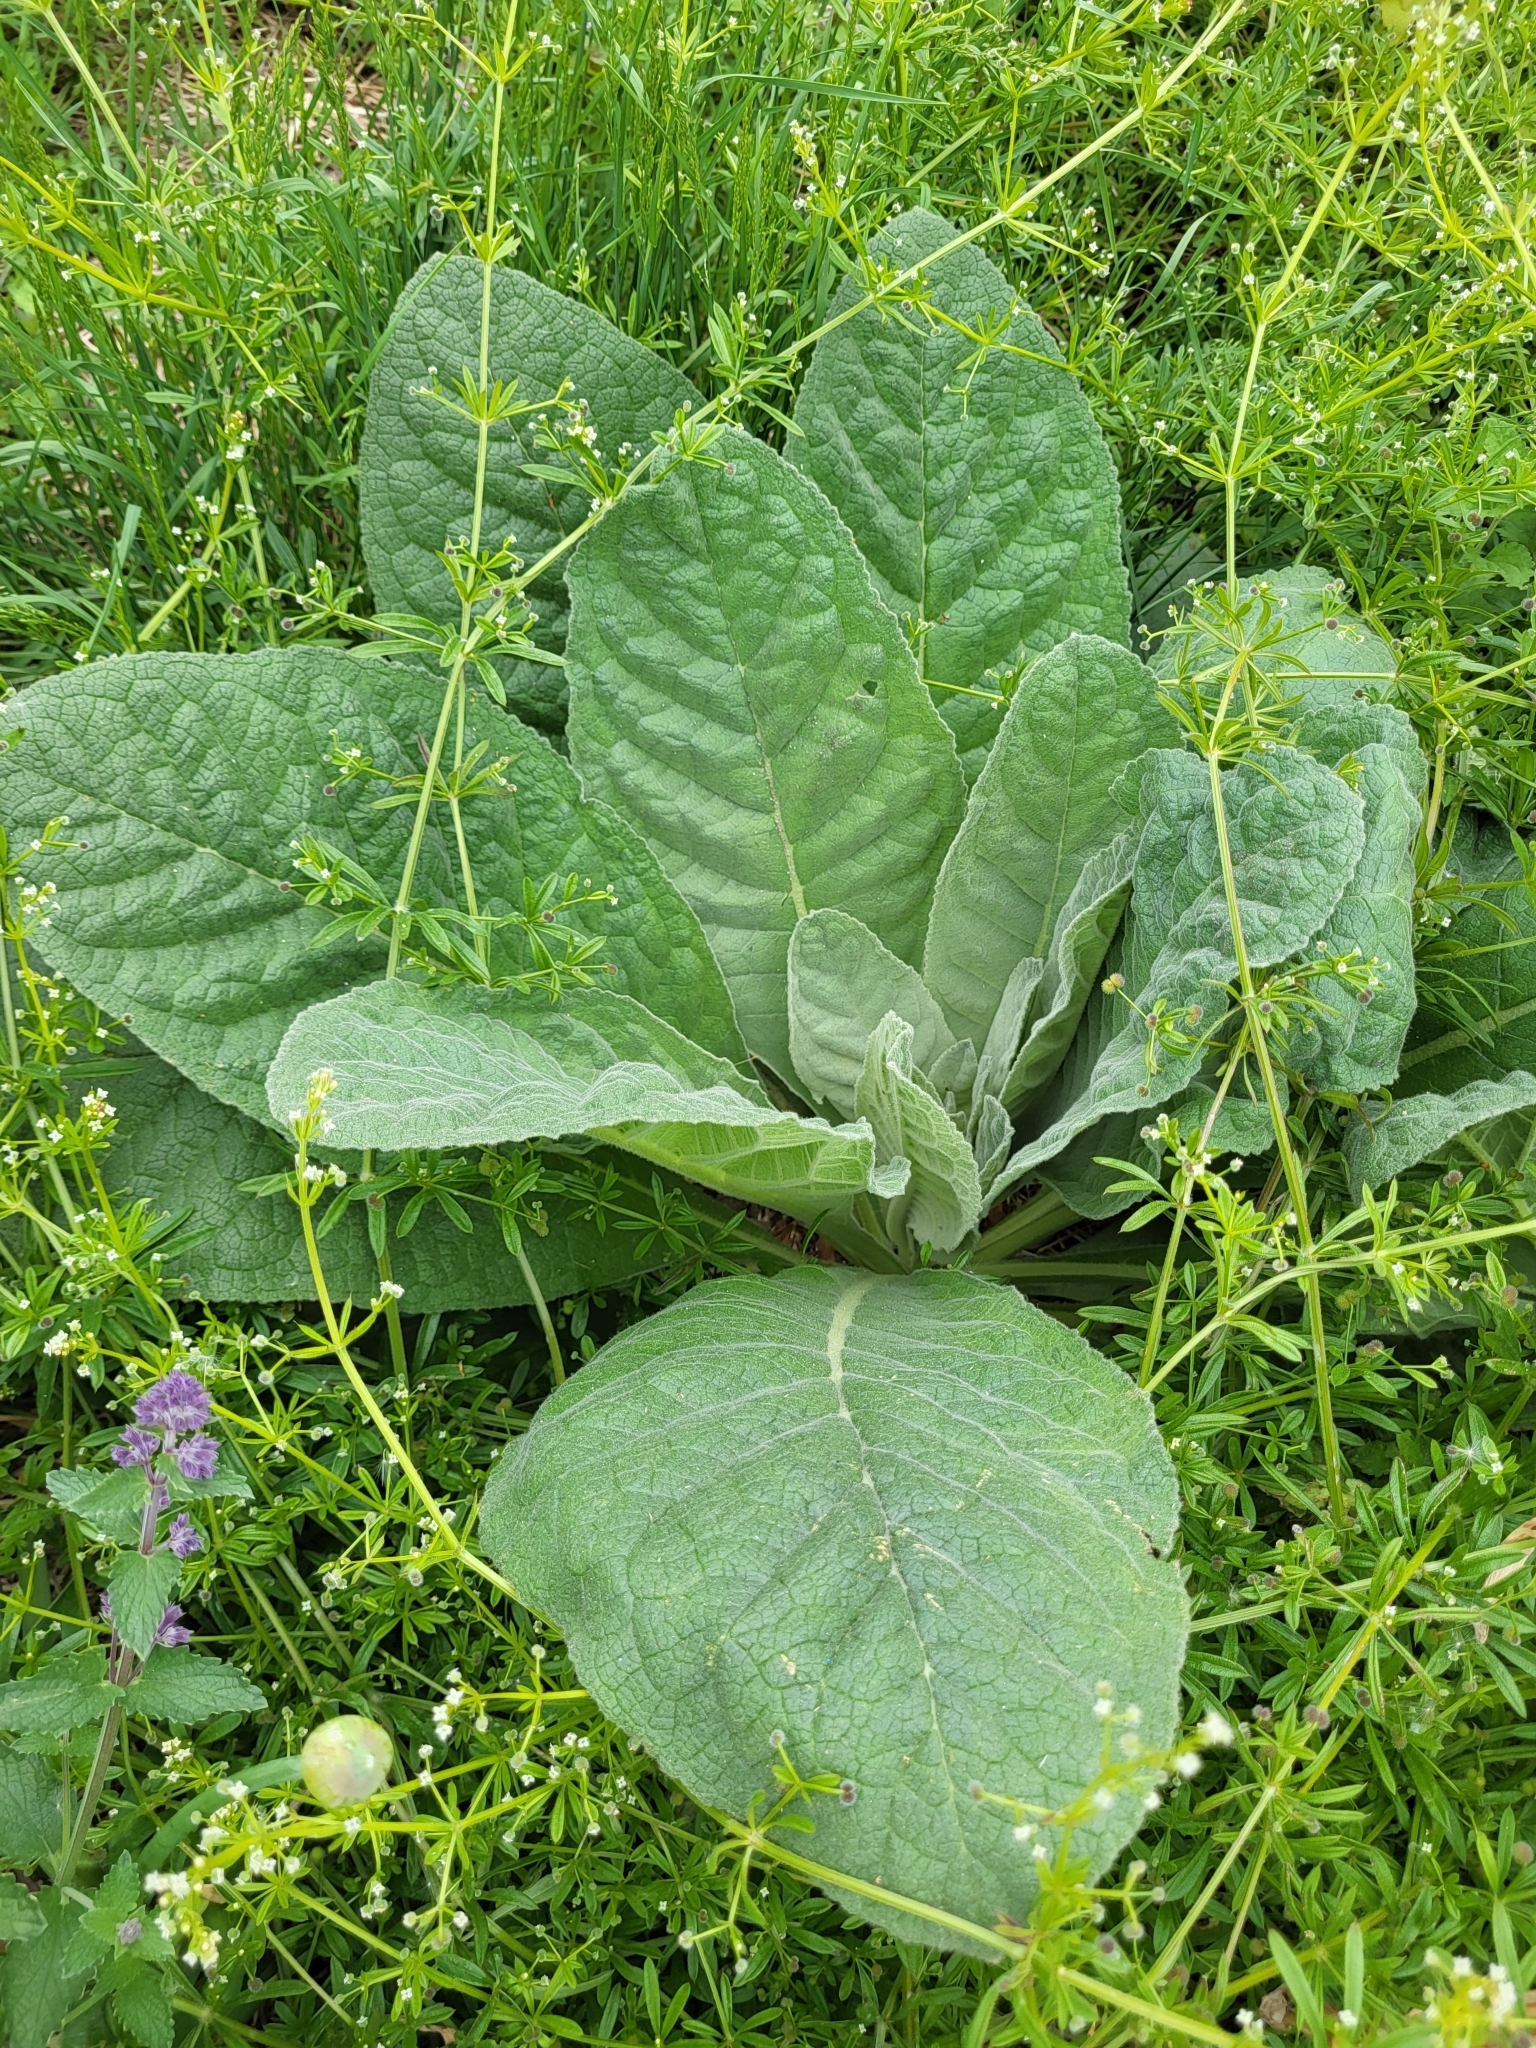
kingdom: Plantae
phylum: Tracheophyta
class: Magnoliopsida
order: Lamiales
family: Scrophulariaceae
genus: Verbascum
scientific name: Verbascum thapsus
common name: Common mullein
